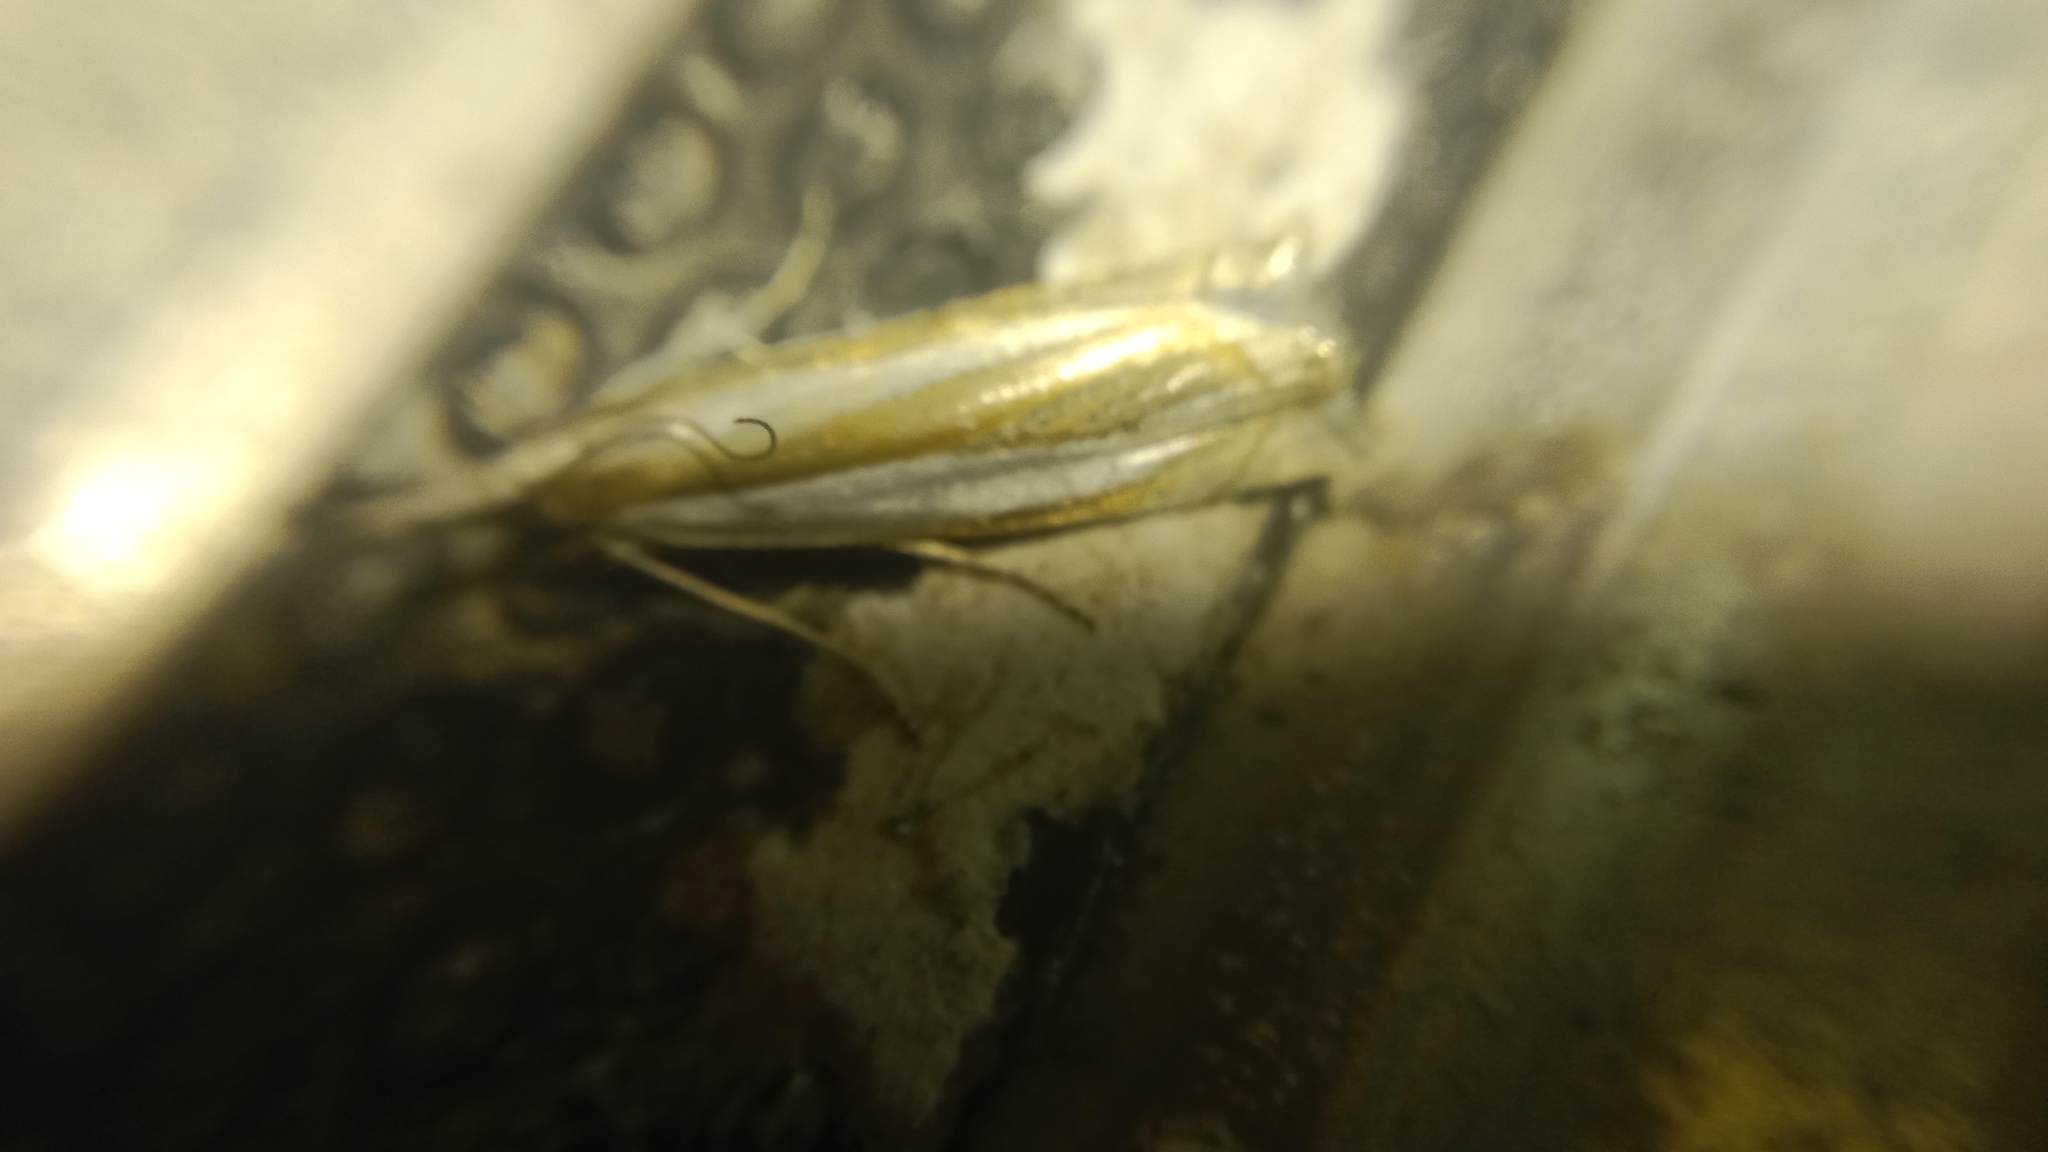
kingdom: Animalia
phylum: Arthropoda
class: Insecta
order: Lepidoptera
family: Crambidae
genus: Crambus
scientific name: Crambus pascuella
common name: Inlaid grass-veneer
